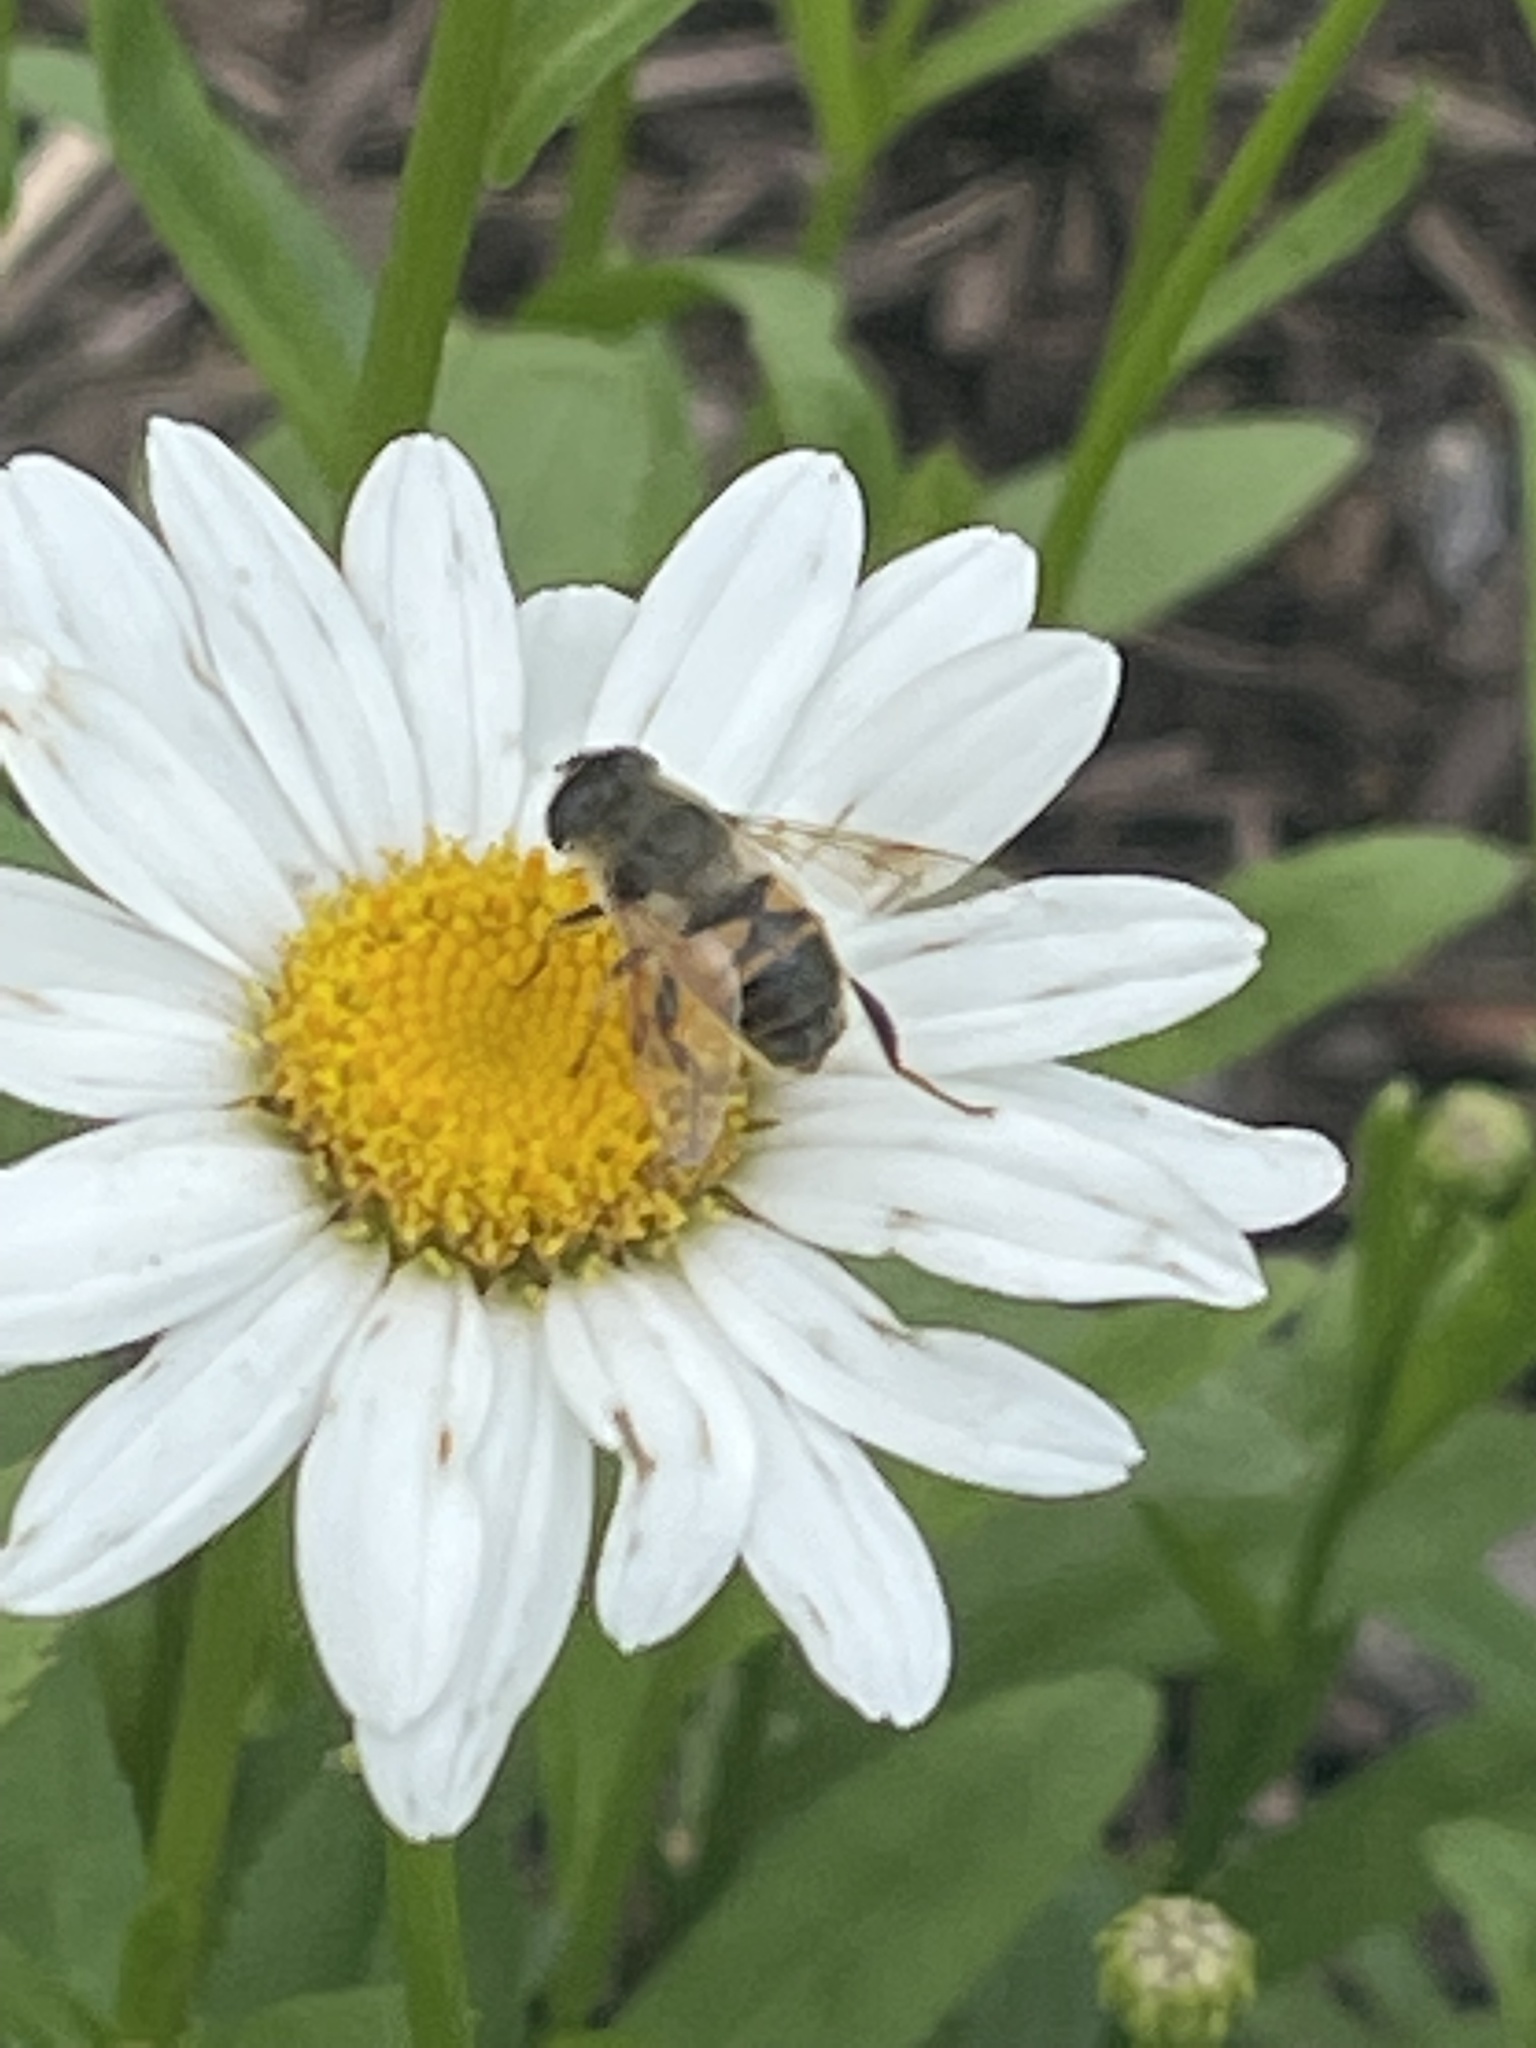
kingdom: Animalia
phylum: Arthropoda
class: Insecta
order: Diptera
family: Syrphidae
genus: Eristalis
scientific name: Eristalis tenax
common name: Drone fly
